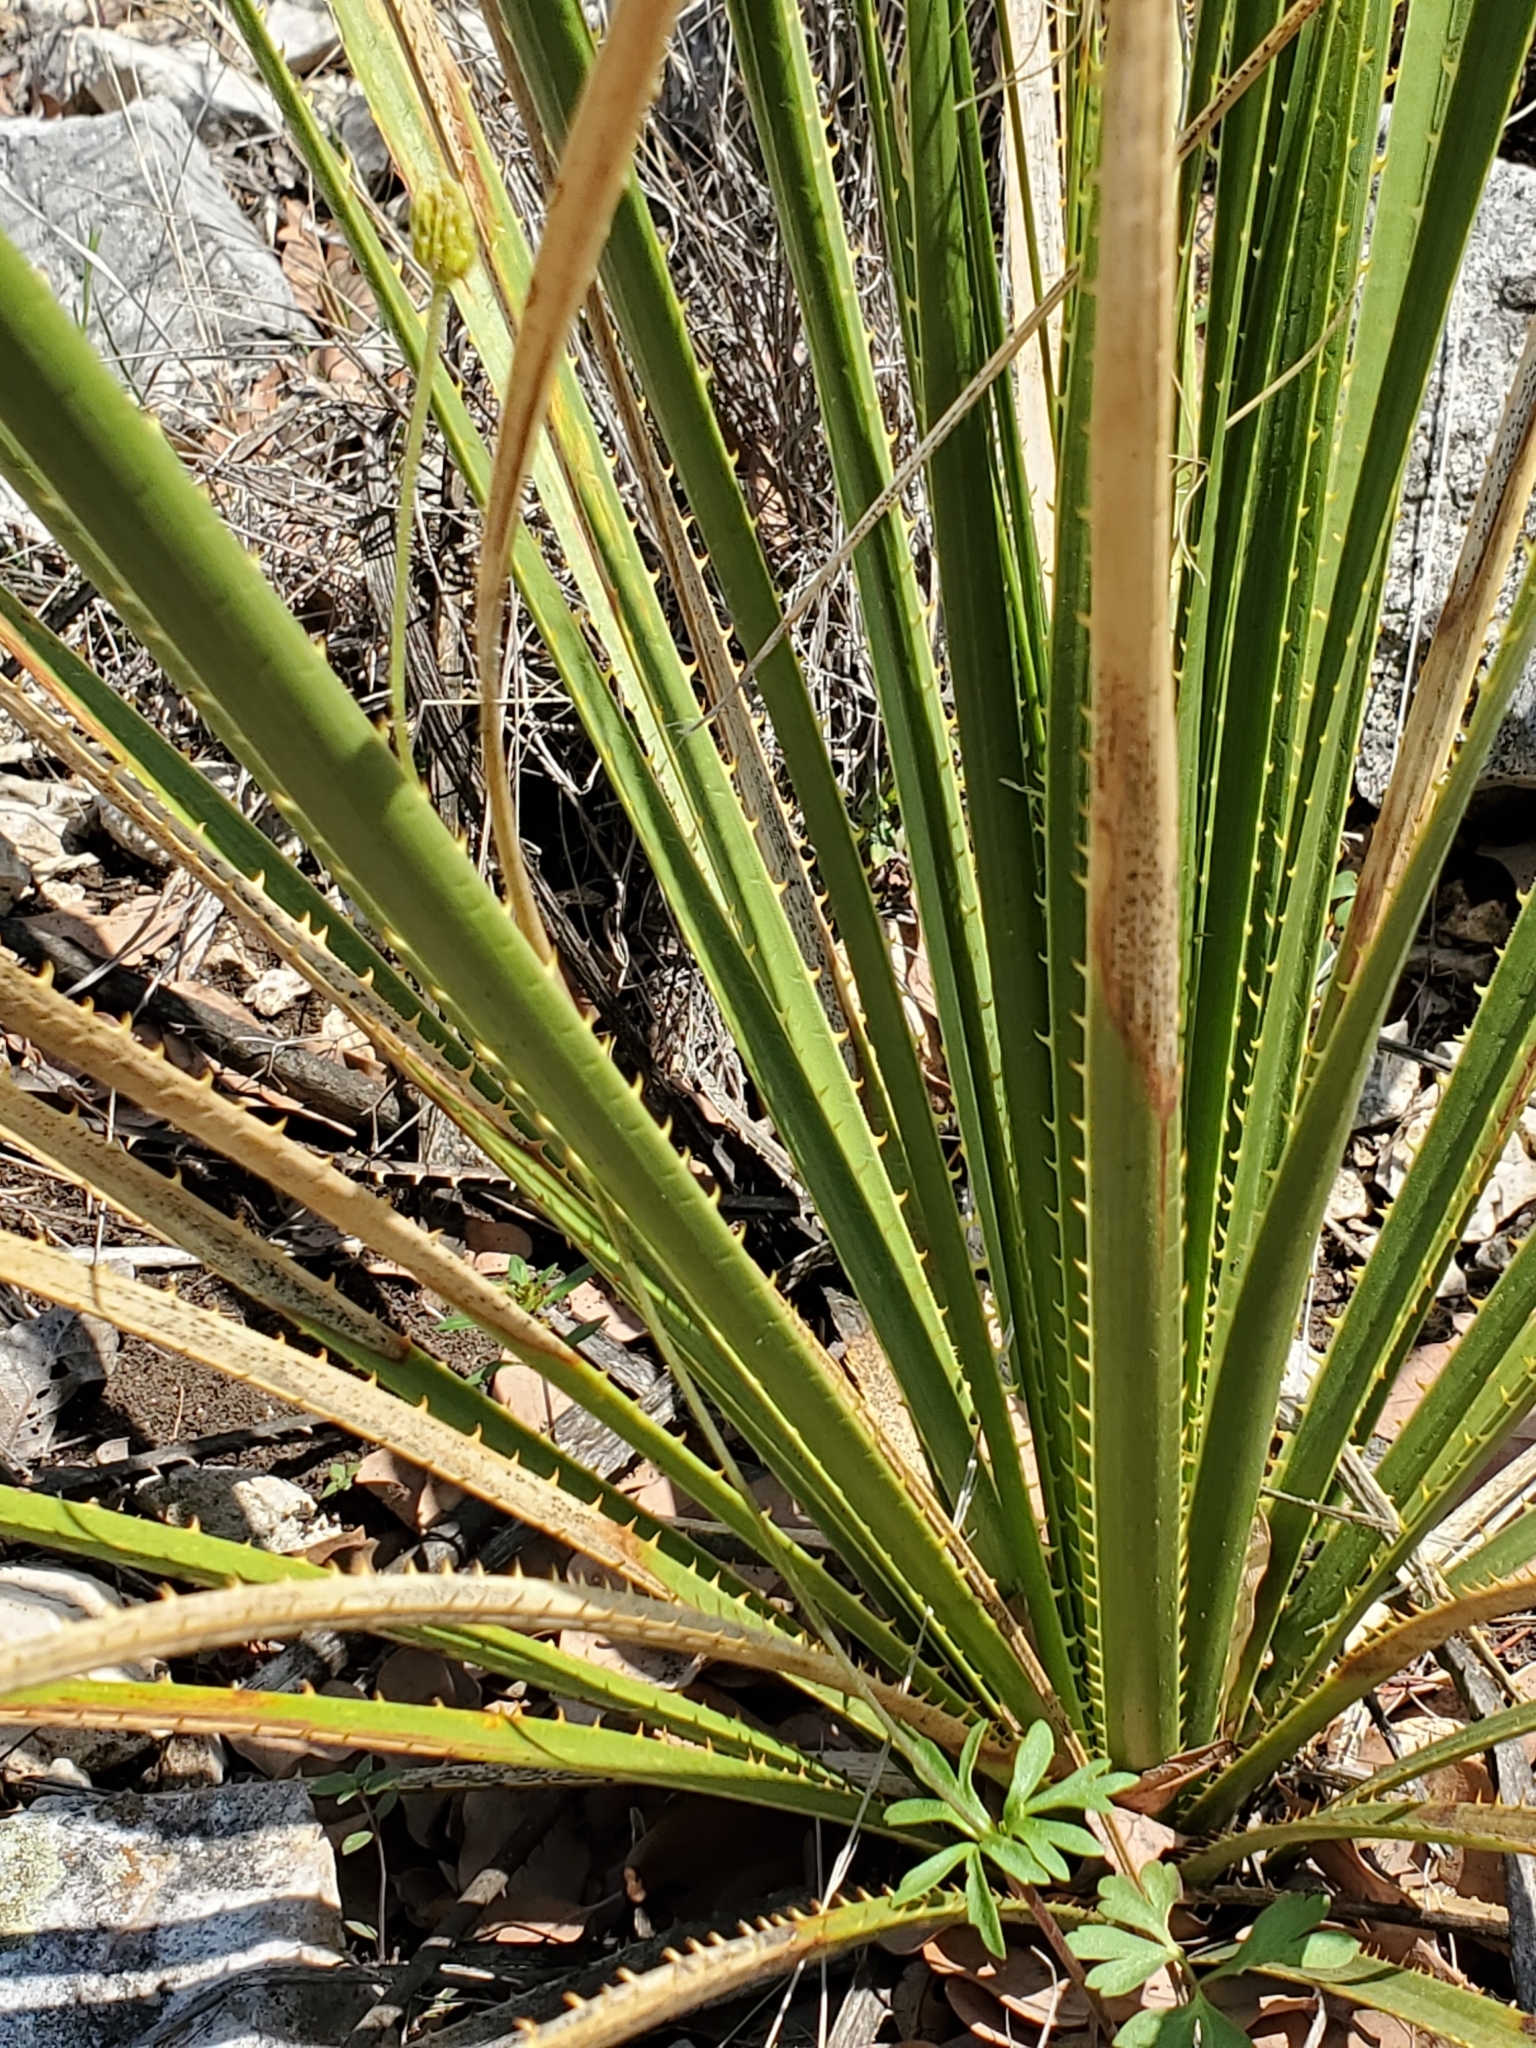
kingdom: Plantae
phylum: Tracheophyta
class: Magnoliopsida
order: Ranunculales
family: Ranunculaceae
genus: Anemone
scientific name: Anemone edwardsiana
